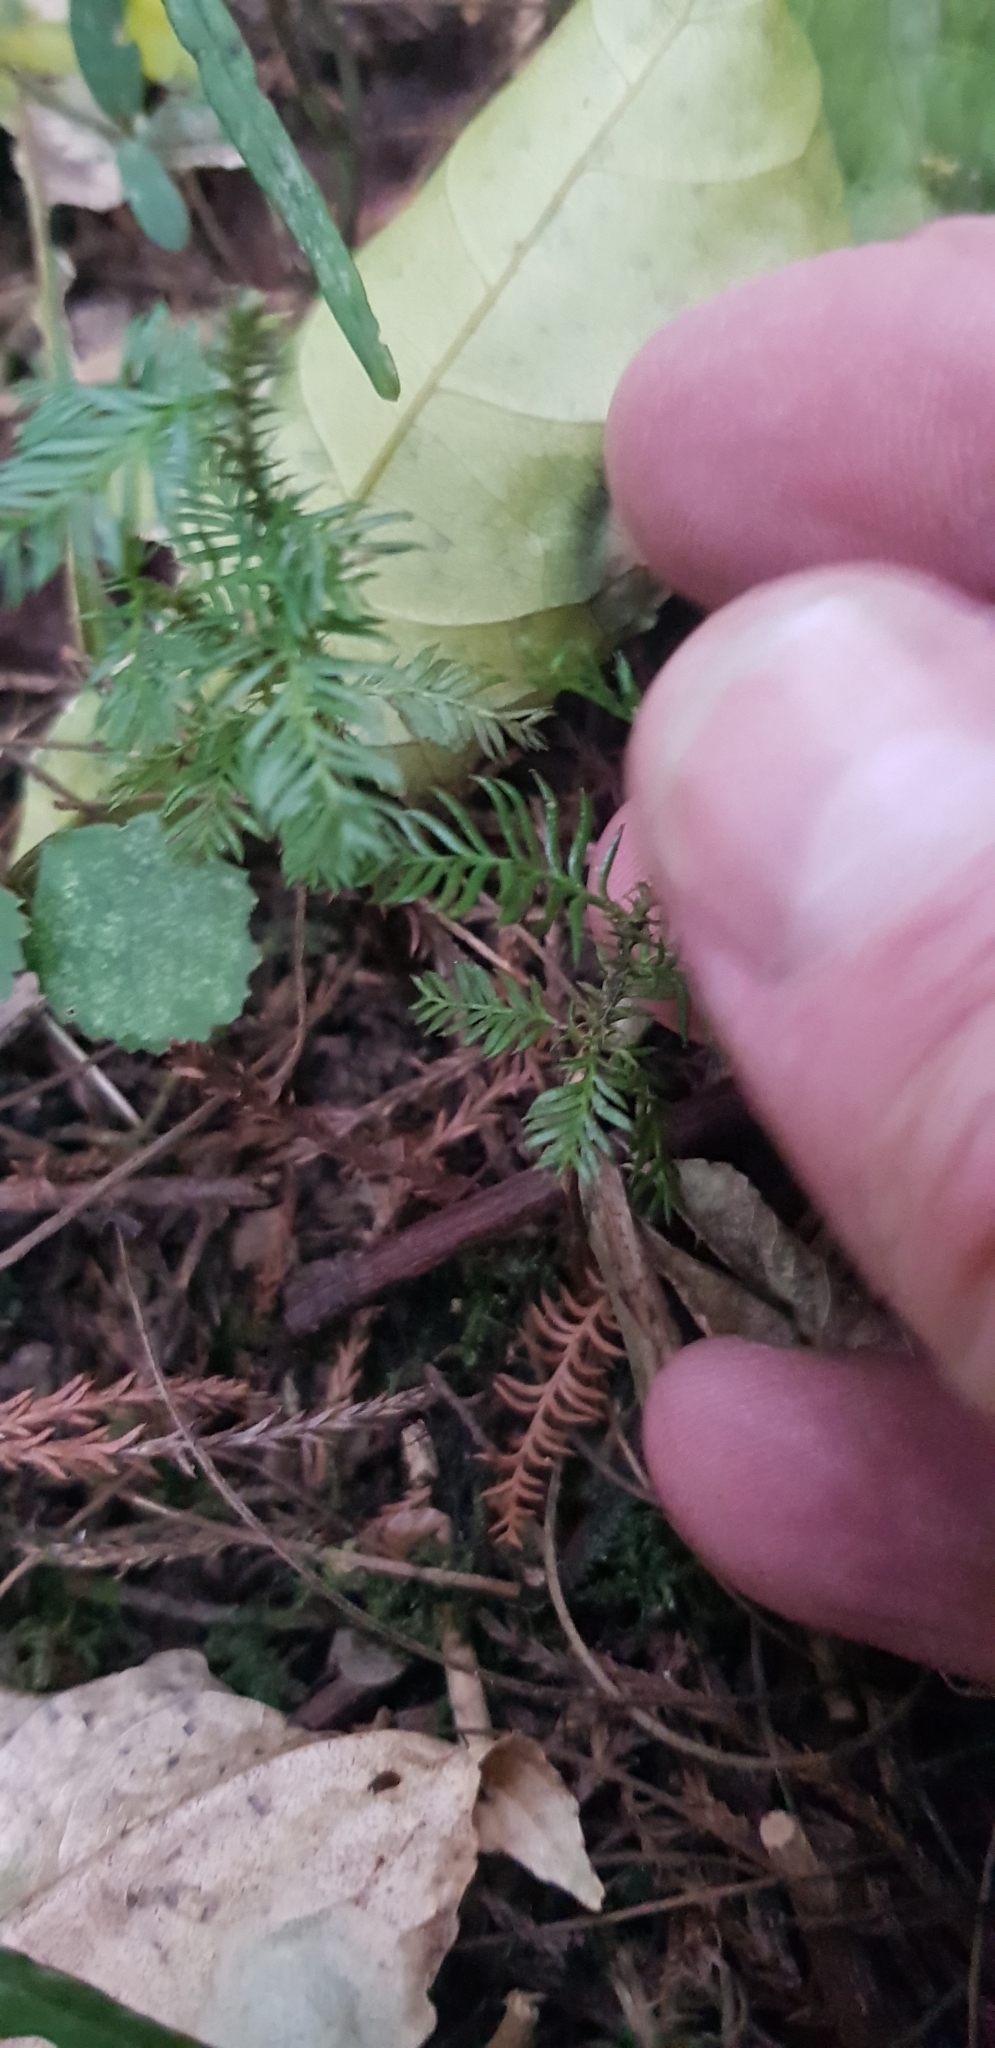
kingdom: Plantae
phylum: Tracheophyta
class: Pinopsida
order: Pinales
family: Podocarpaceae
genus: Dacrycarpus
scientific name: Dacrycarpus dacrydioides
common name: White pine
